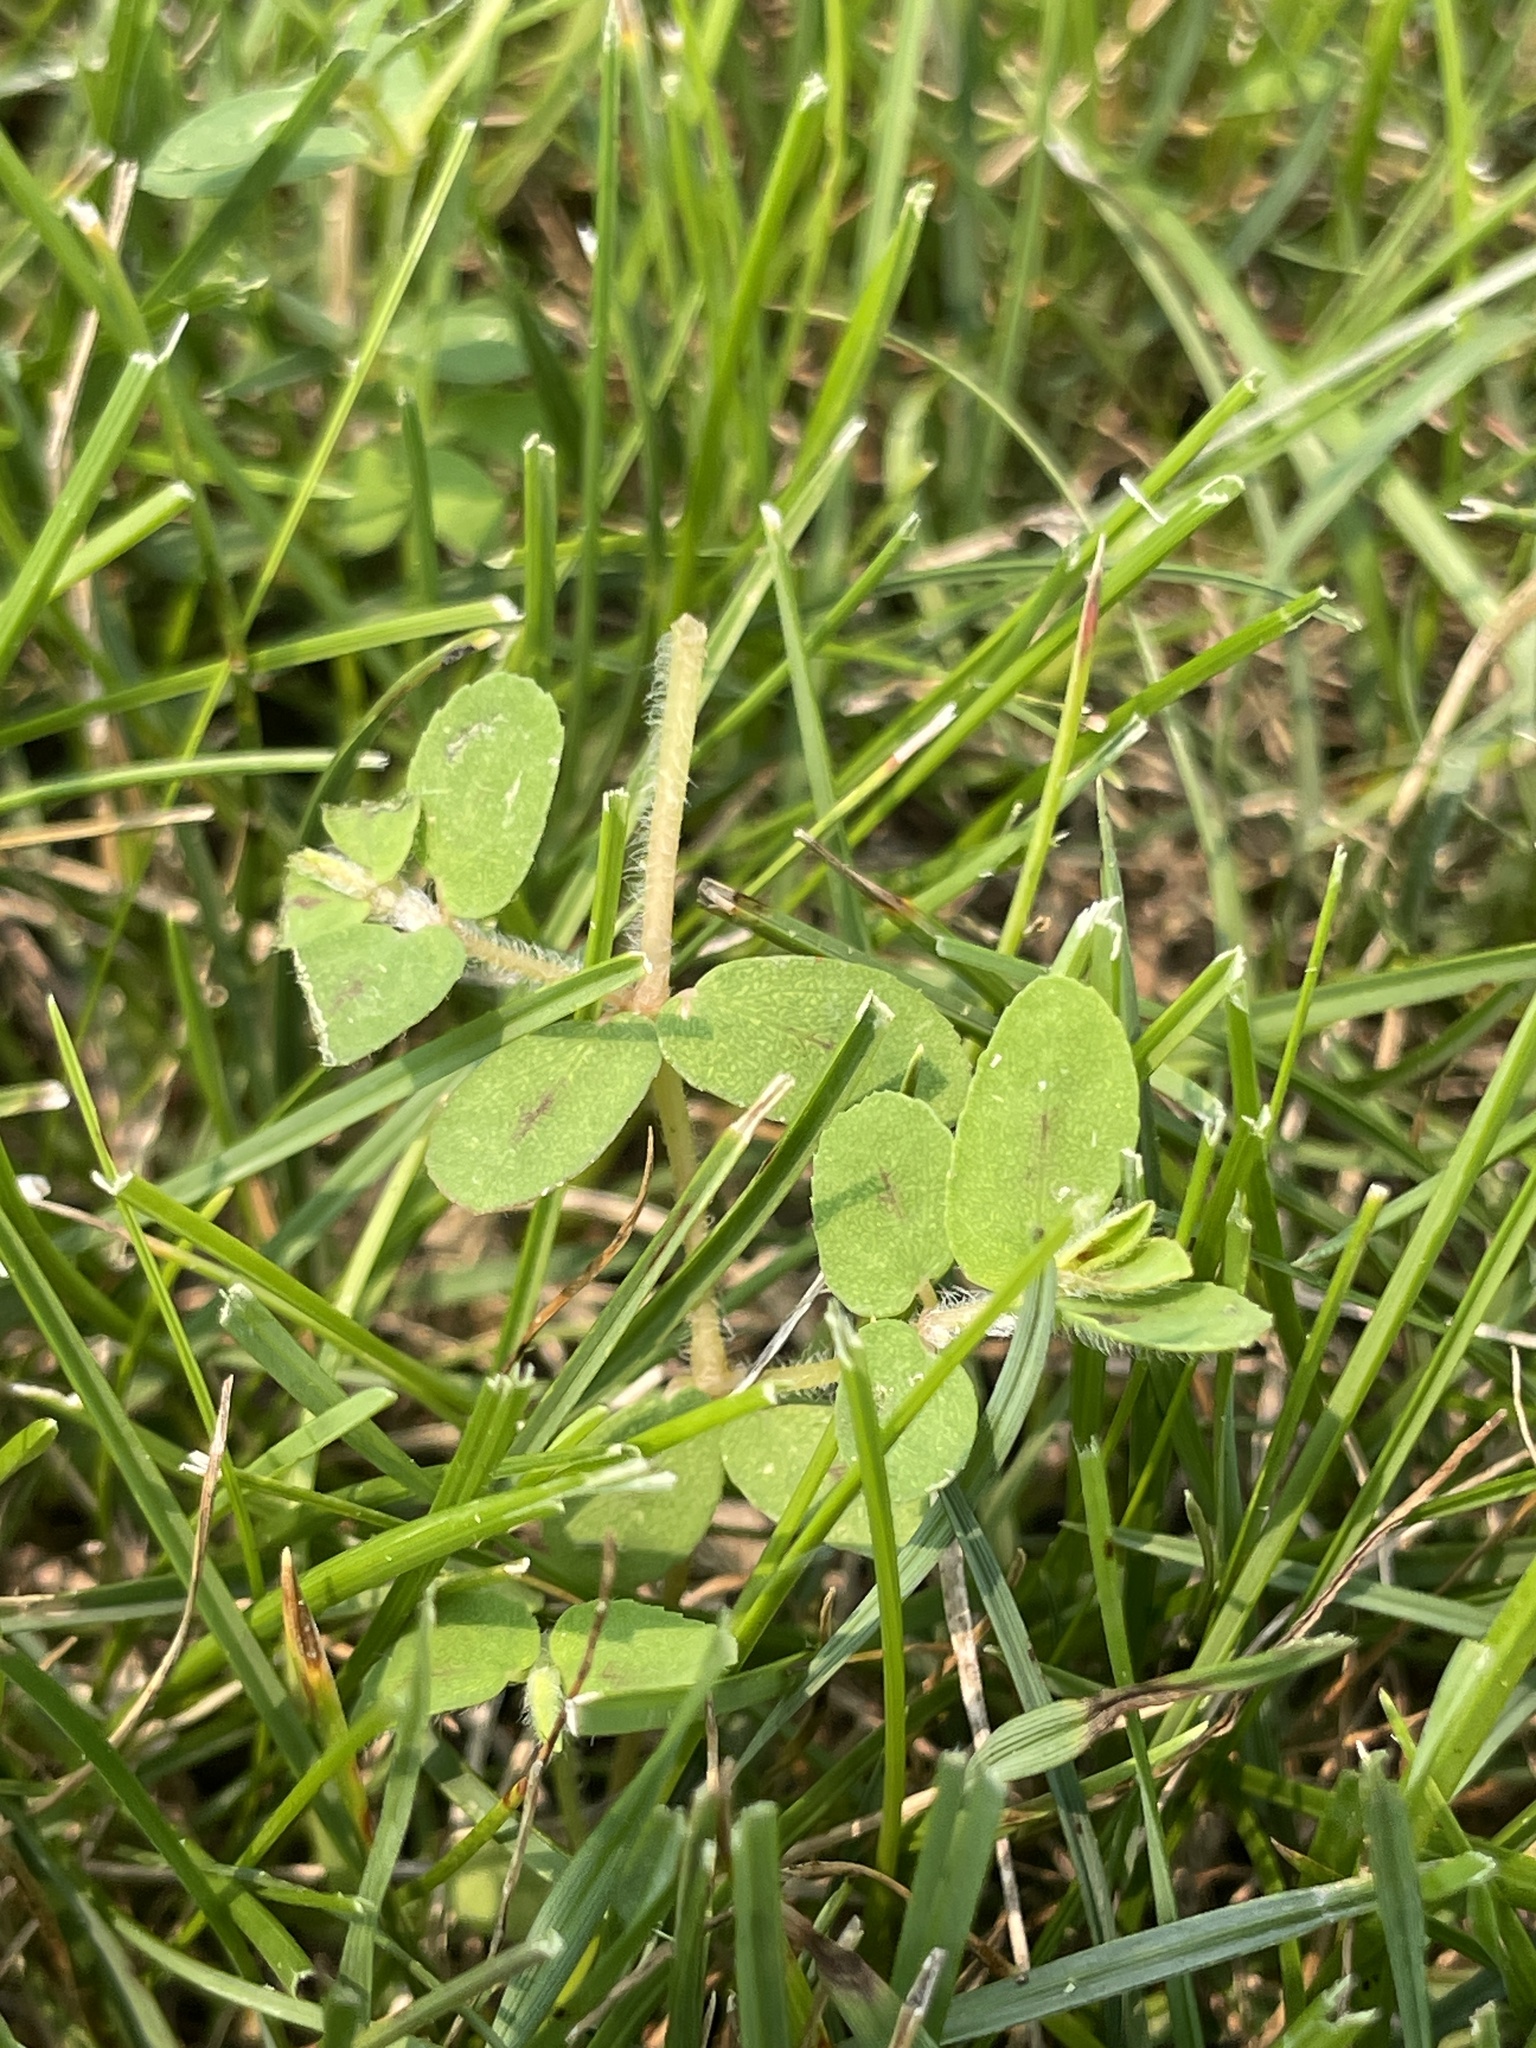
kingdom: Plantae
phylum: Tracheophyta
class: Magnoliopsida
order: Malpighiales
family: Euphorbiaceae
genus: Euphorbia
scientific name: Euphorbia maculata
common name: Spotted spurge
